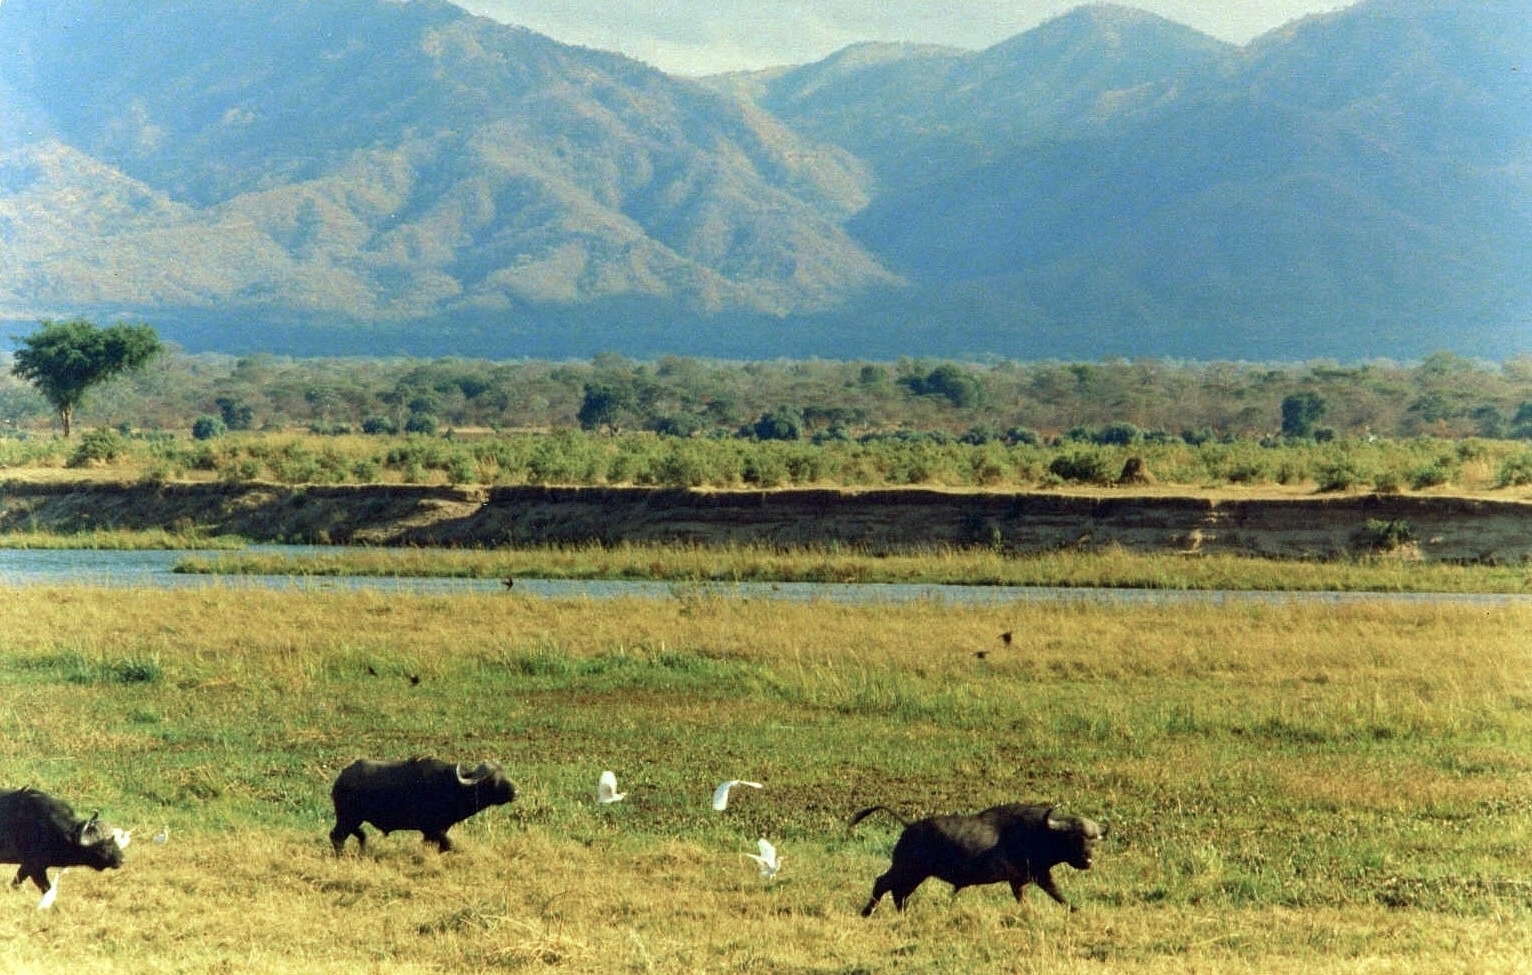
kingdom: Animalia
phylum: Chordata
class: Mammalia
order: Artiodactyla
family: Bovidae
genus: Syncerus
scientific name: Syncerus caffer
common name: African buffalo
